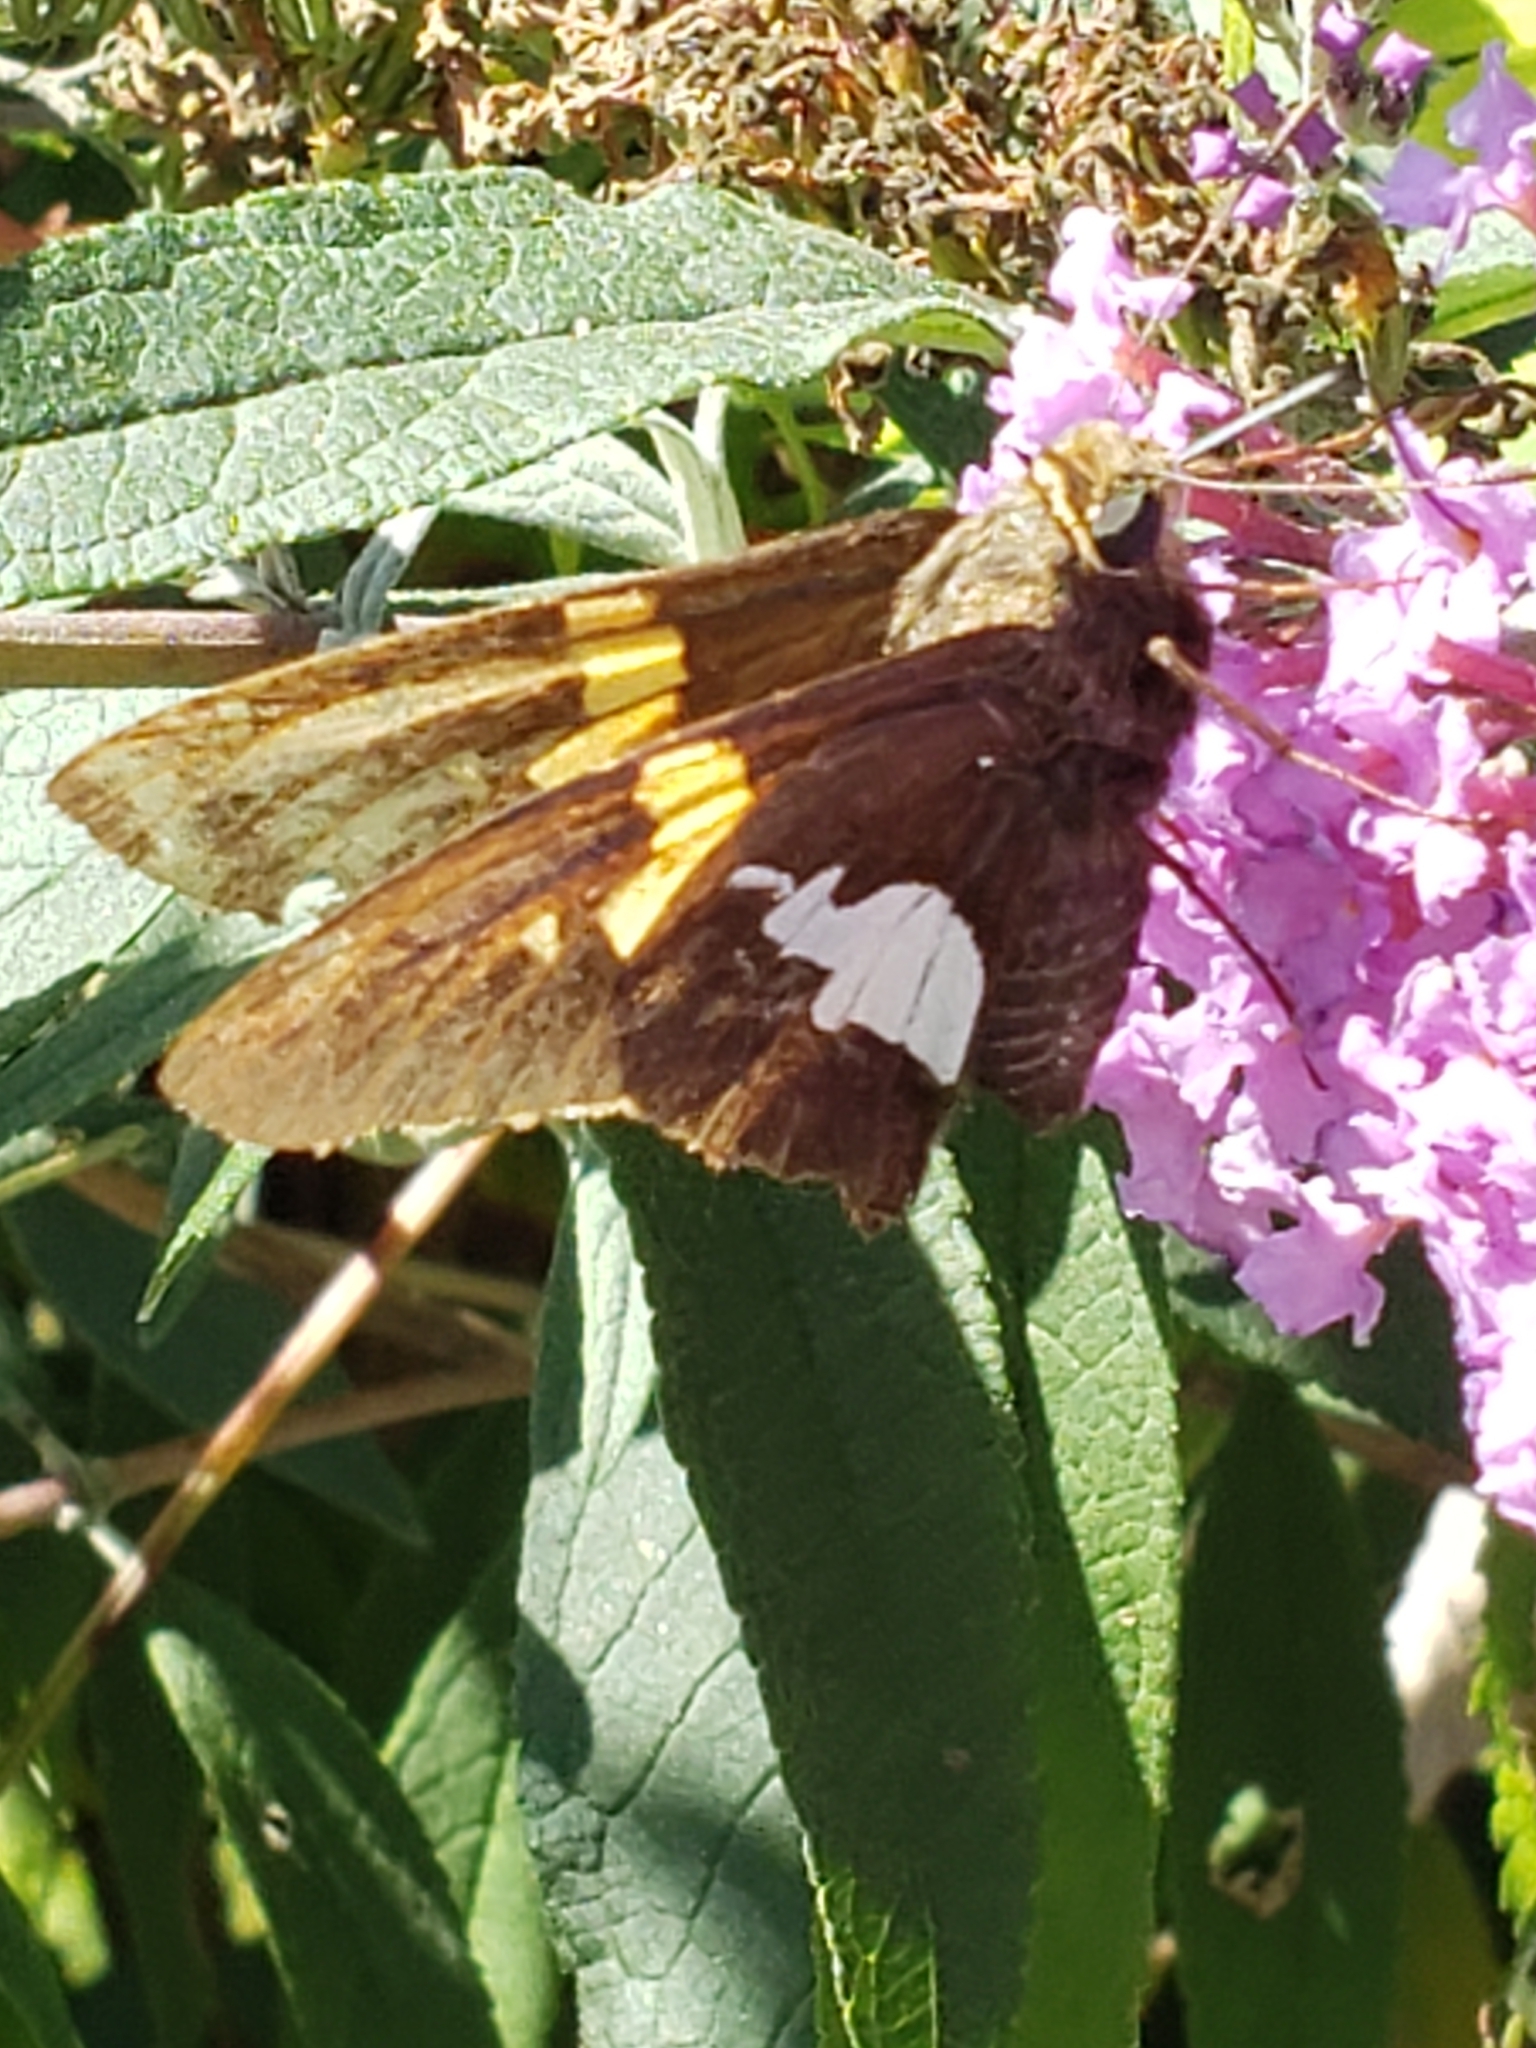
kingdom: Animalia
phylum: Arthropoda
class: Insecta
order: Lepidoptera
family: Hesperiidae
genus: Epargyreus
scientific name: Epargyreus clarus
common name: Silver-spotted skipper
